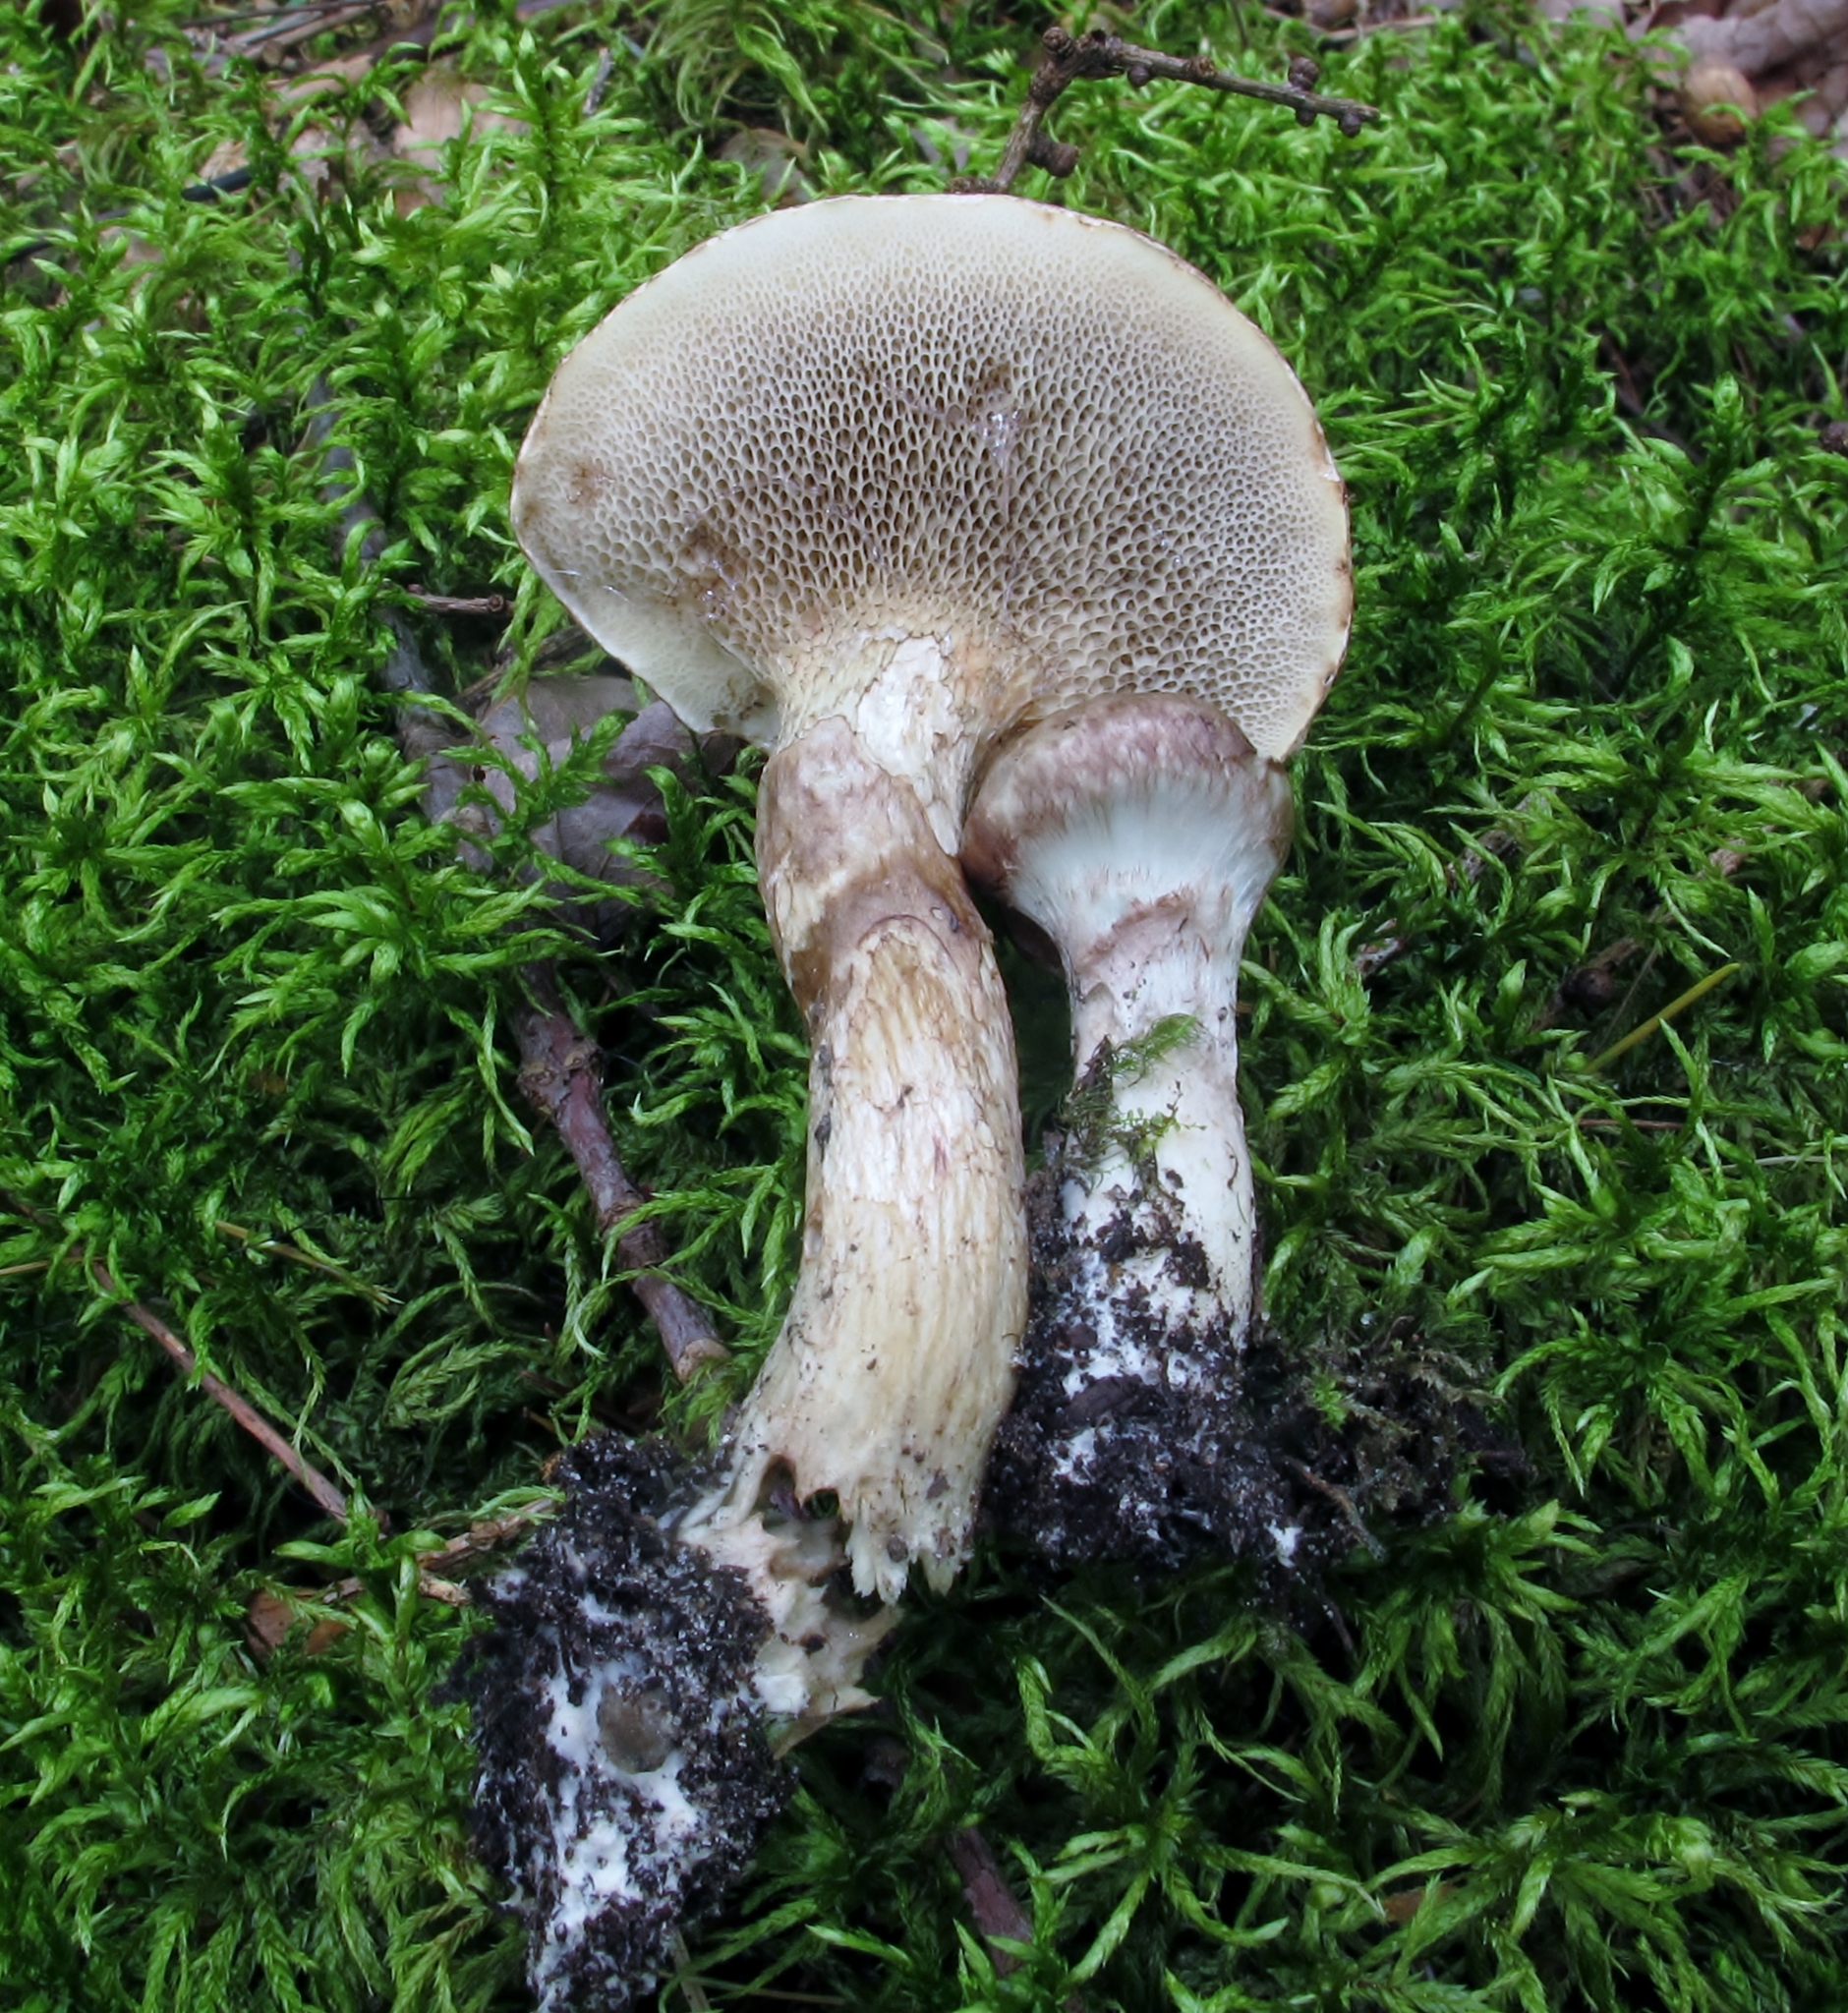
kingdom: Fungi
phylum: Basidiomycota
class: Agaricomycetes
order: Boletales
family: Suillaceae
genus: Boletinus
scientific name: Boletinus grisellus
